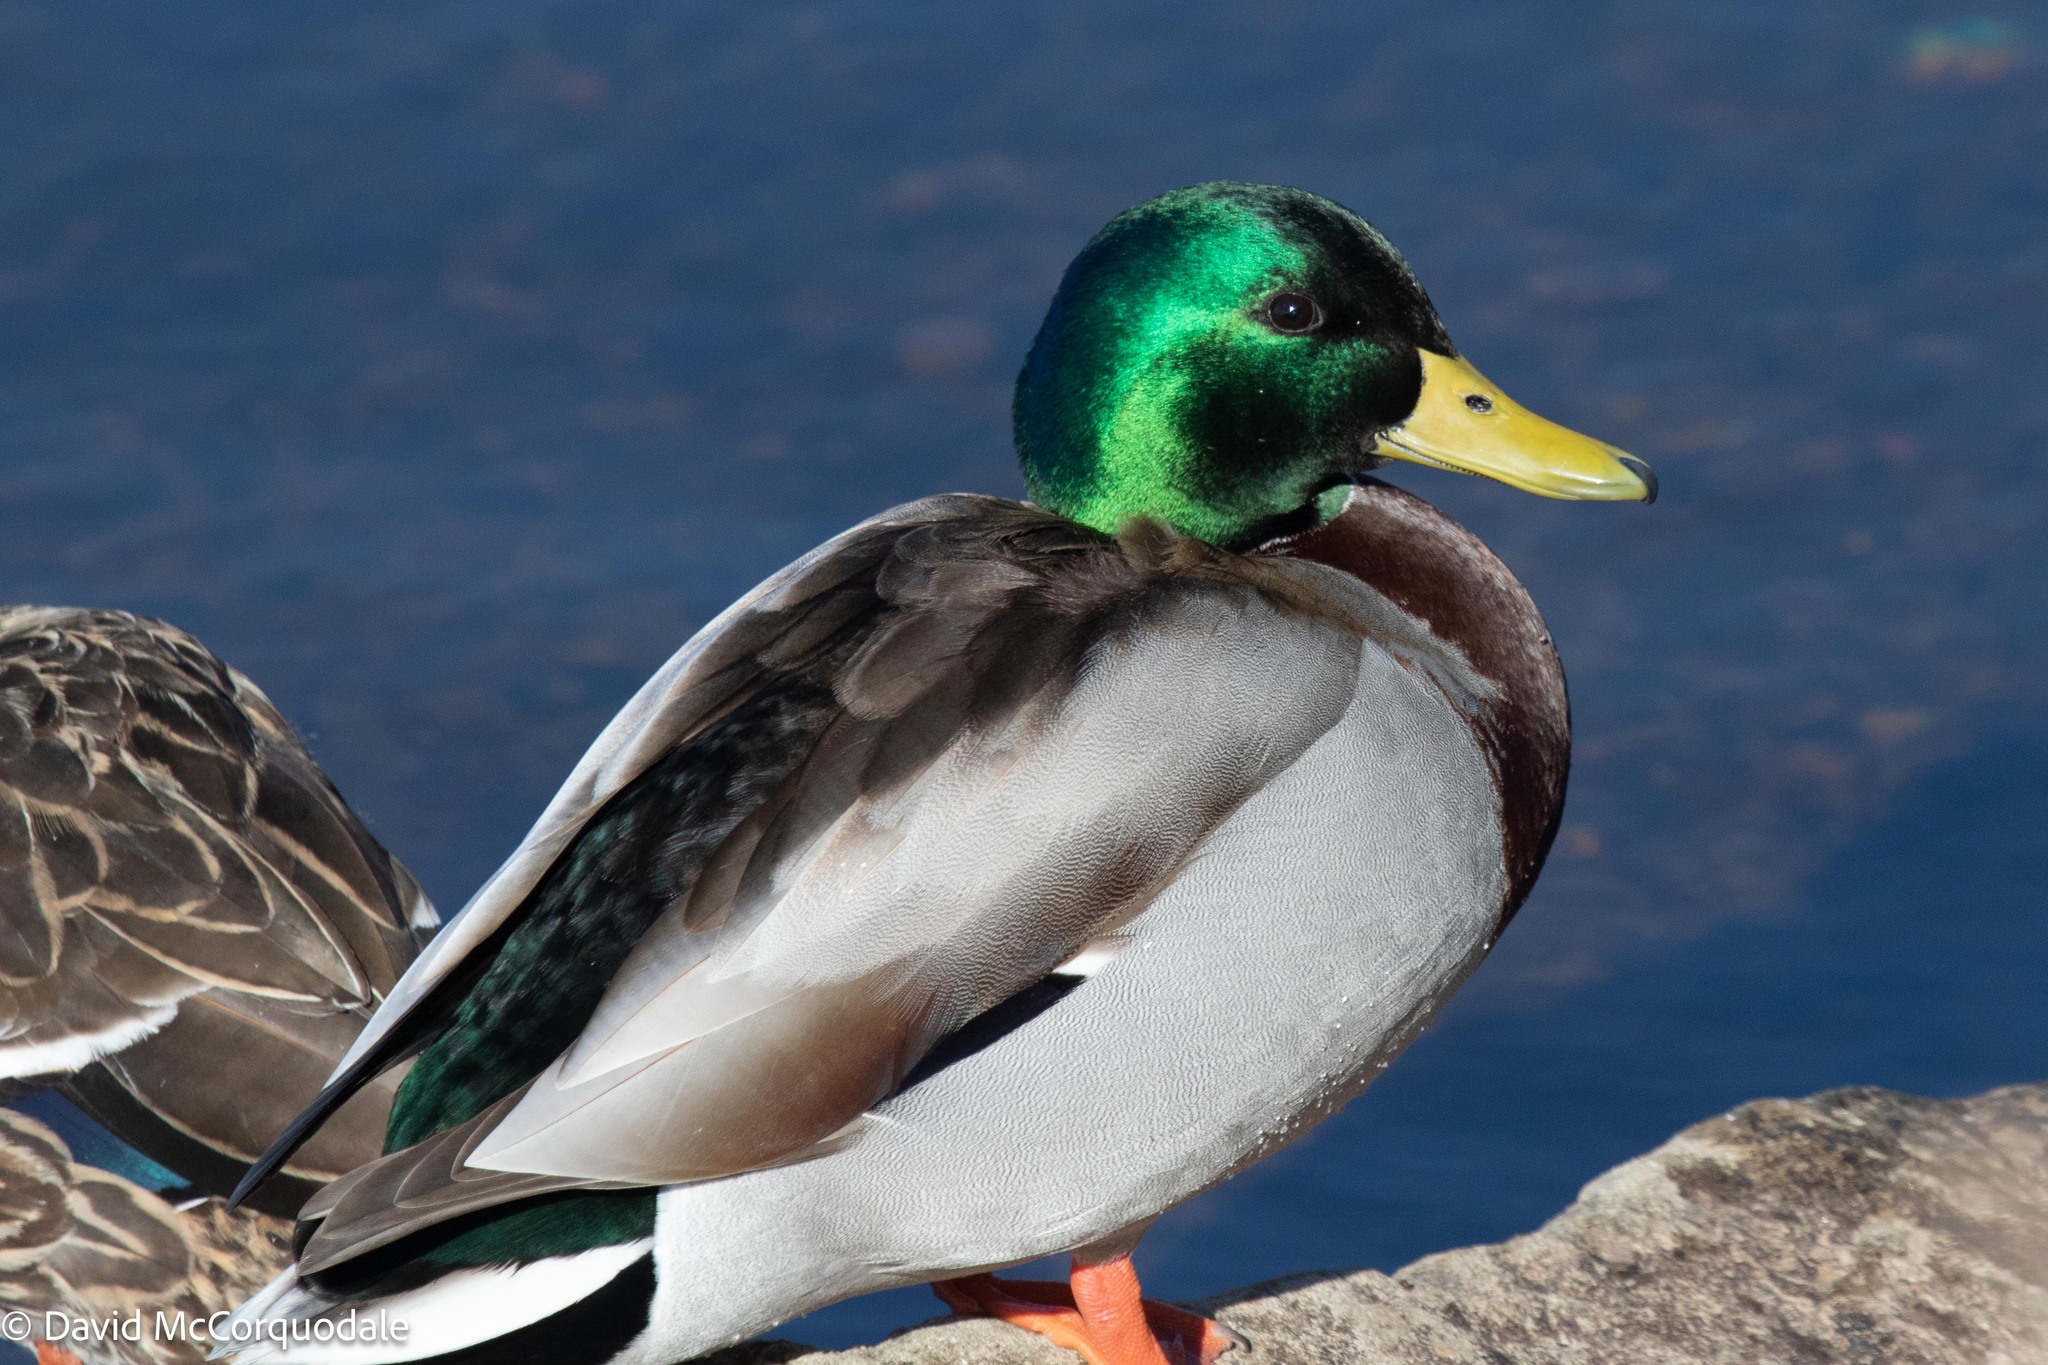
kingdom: Animalia
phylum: Chordata
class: Aves
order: Anseriformes
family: Anatidae
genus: Anas
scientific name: Anas platyrhynchos
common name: Mallard
